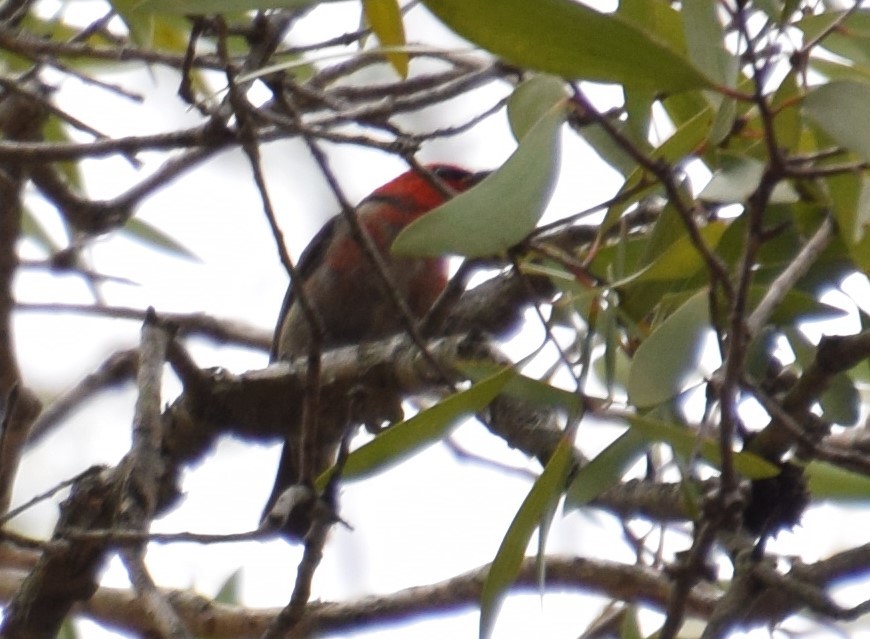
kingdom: Animalia
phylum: Chordata
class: Aves
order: Passeriformes
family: Meliphagidae
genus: Myzomela
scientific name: Myzomela sanguinolenta
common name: Scarlet myzomela
